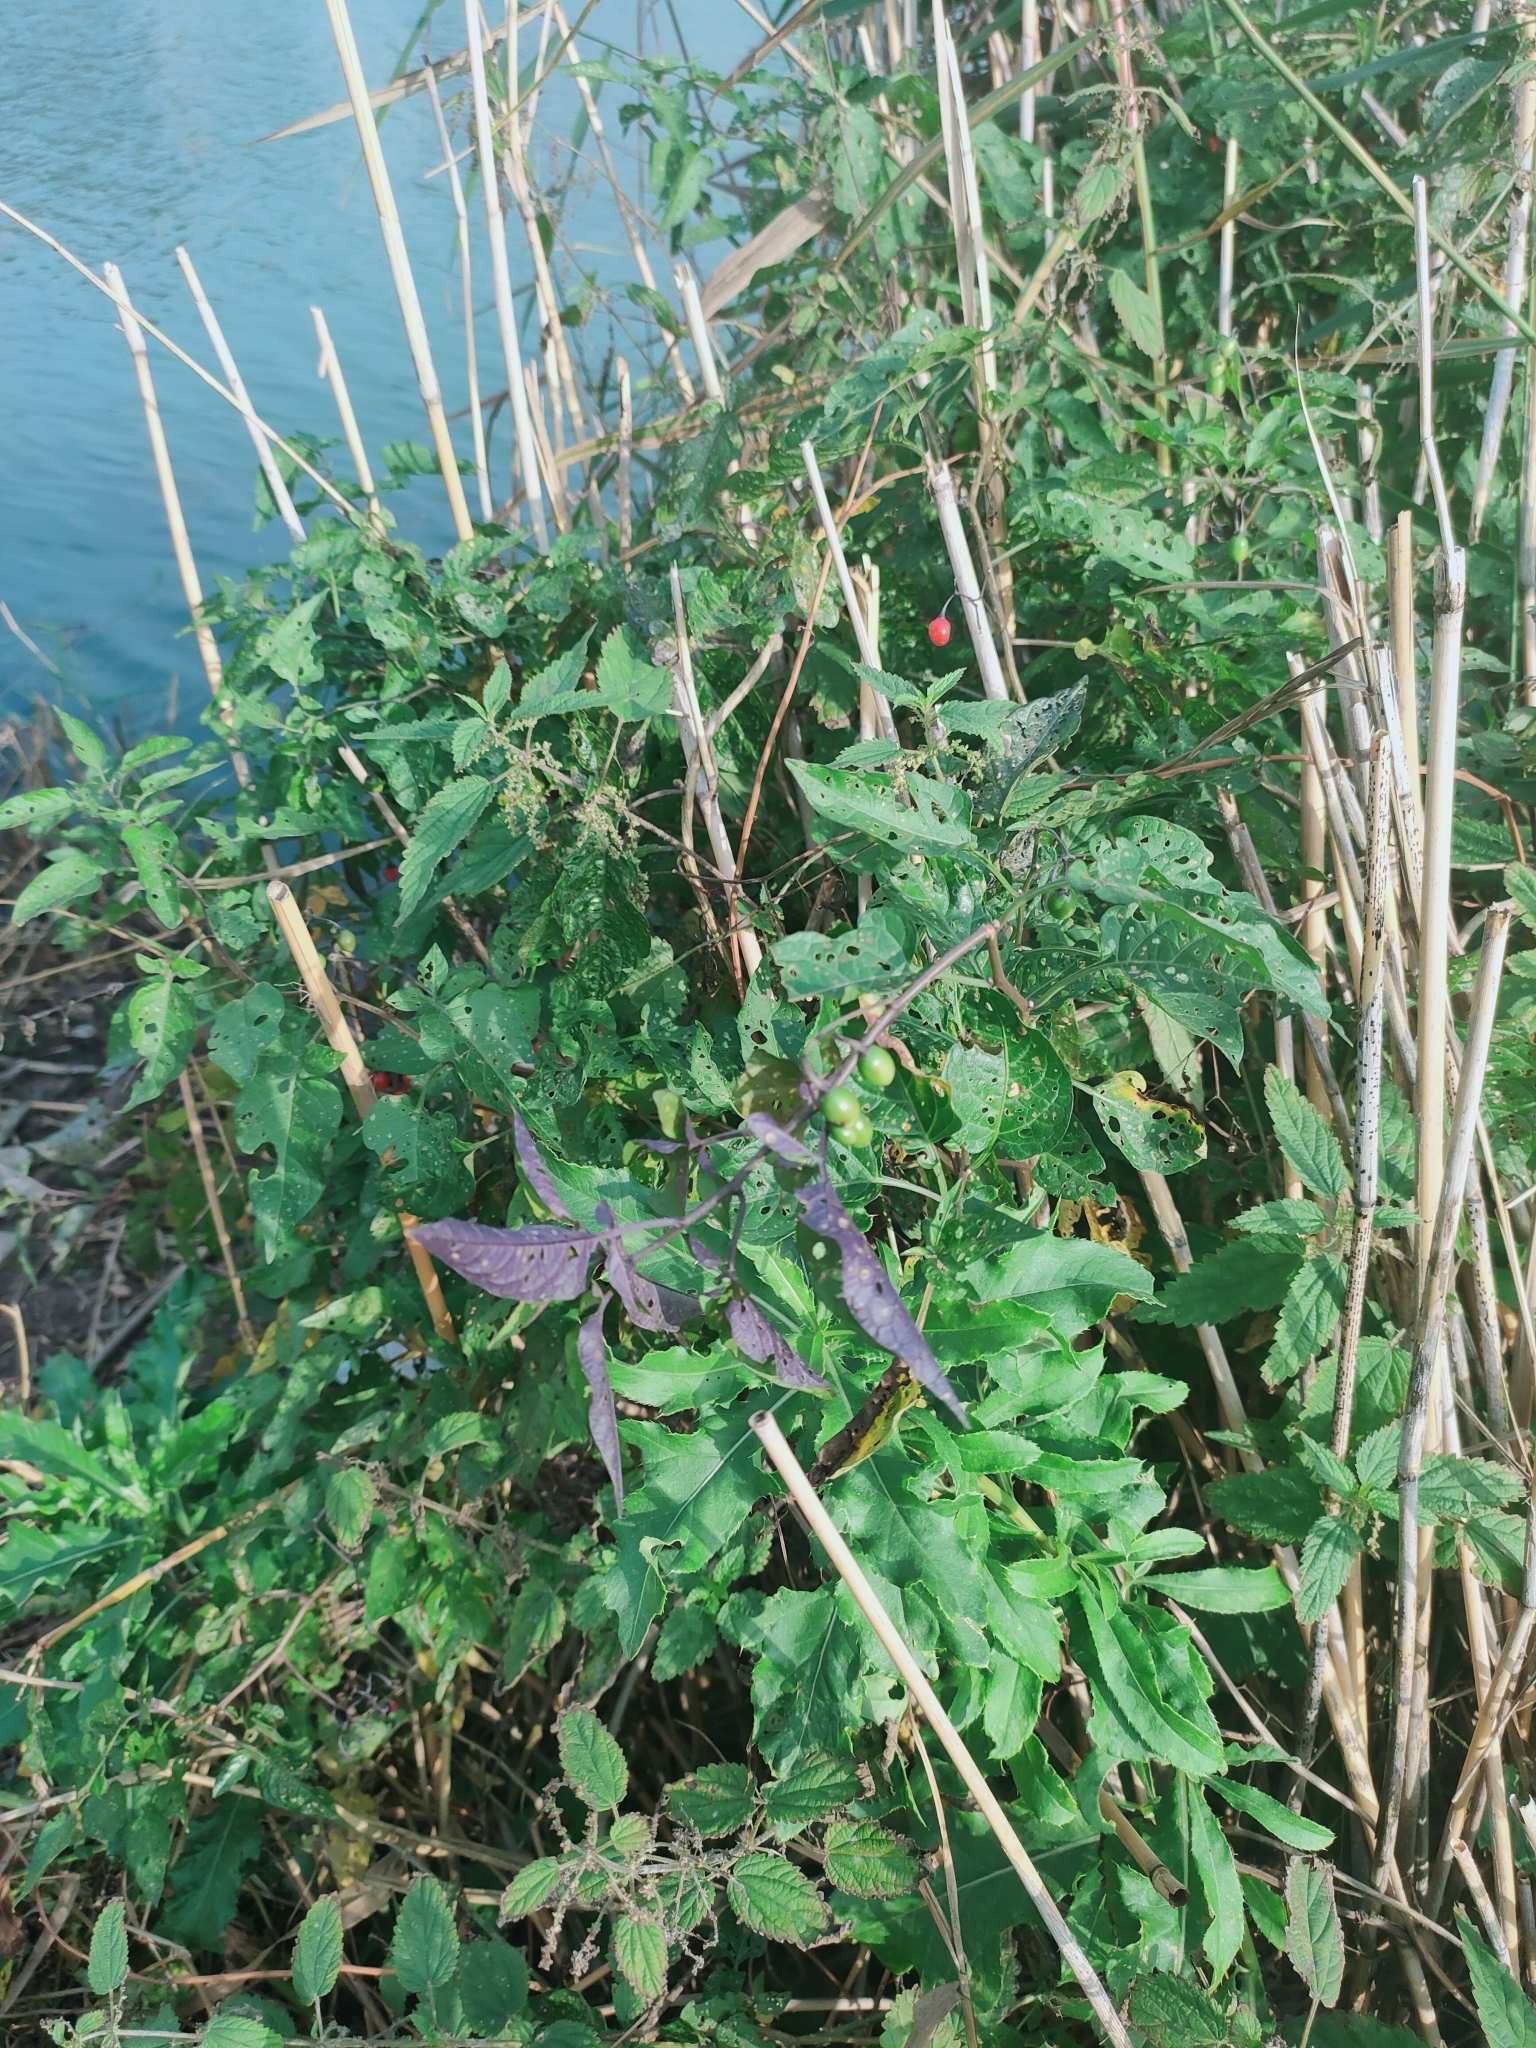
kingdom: Plantae
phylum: Tracheophyta
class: Magnoliopsida
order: Solanales
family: Solanaceae
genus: Solanum
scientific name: Solanum dulcamara
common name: Climbing nightshade
